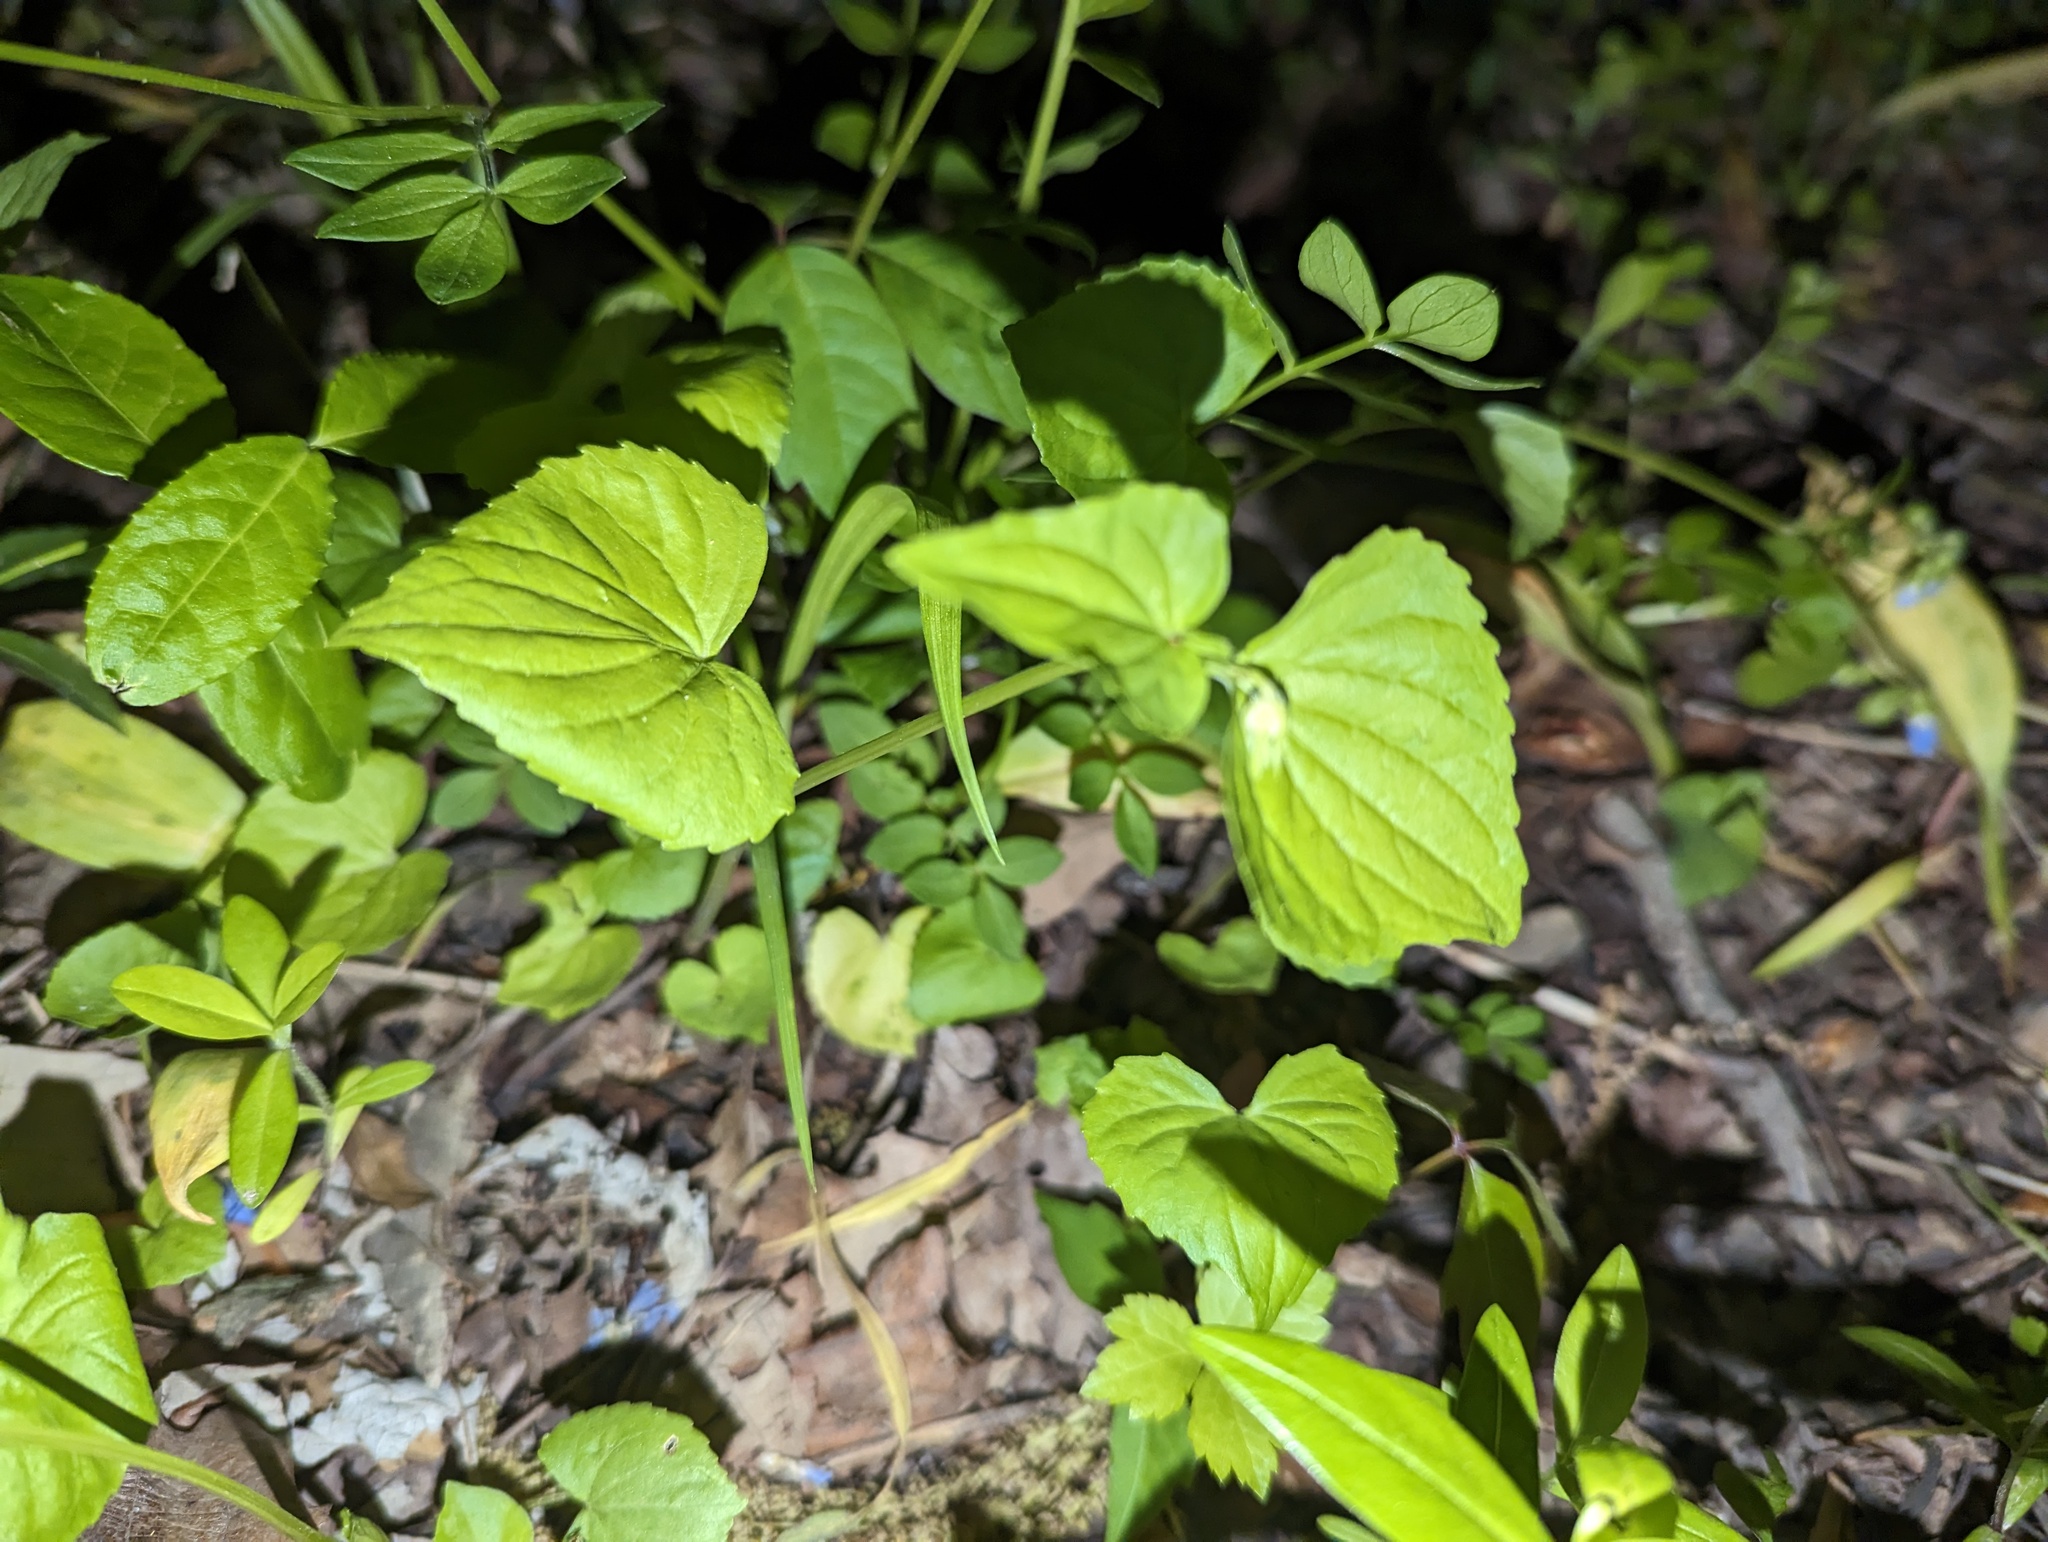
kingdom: Plantae
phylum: Tracheophyta
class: Magnoliopsida
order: Malpighiales
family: Violaceae
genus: Viola
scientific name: Viola eriocarpa
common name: Smooth yellow violet
